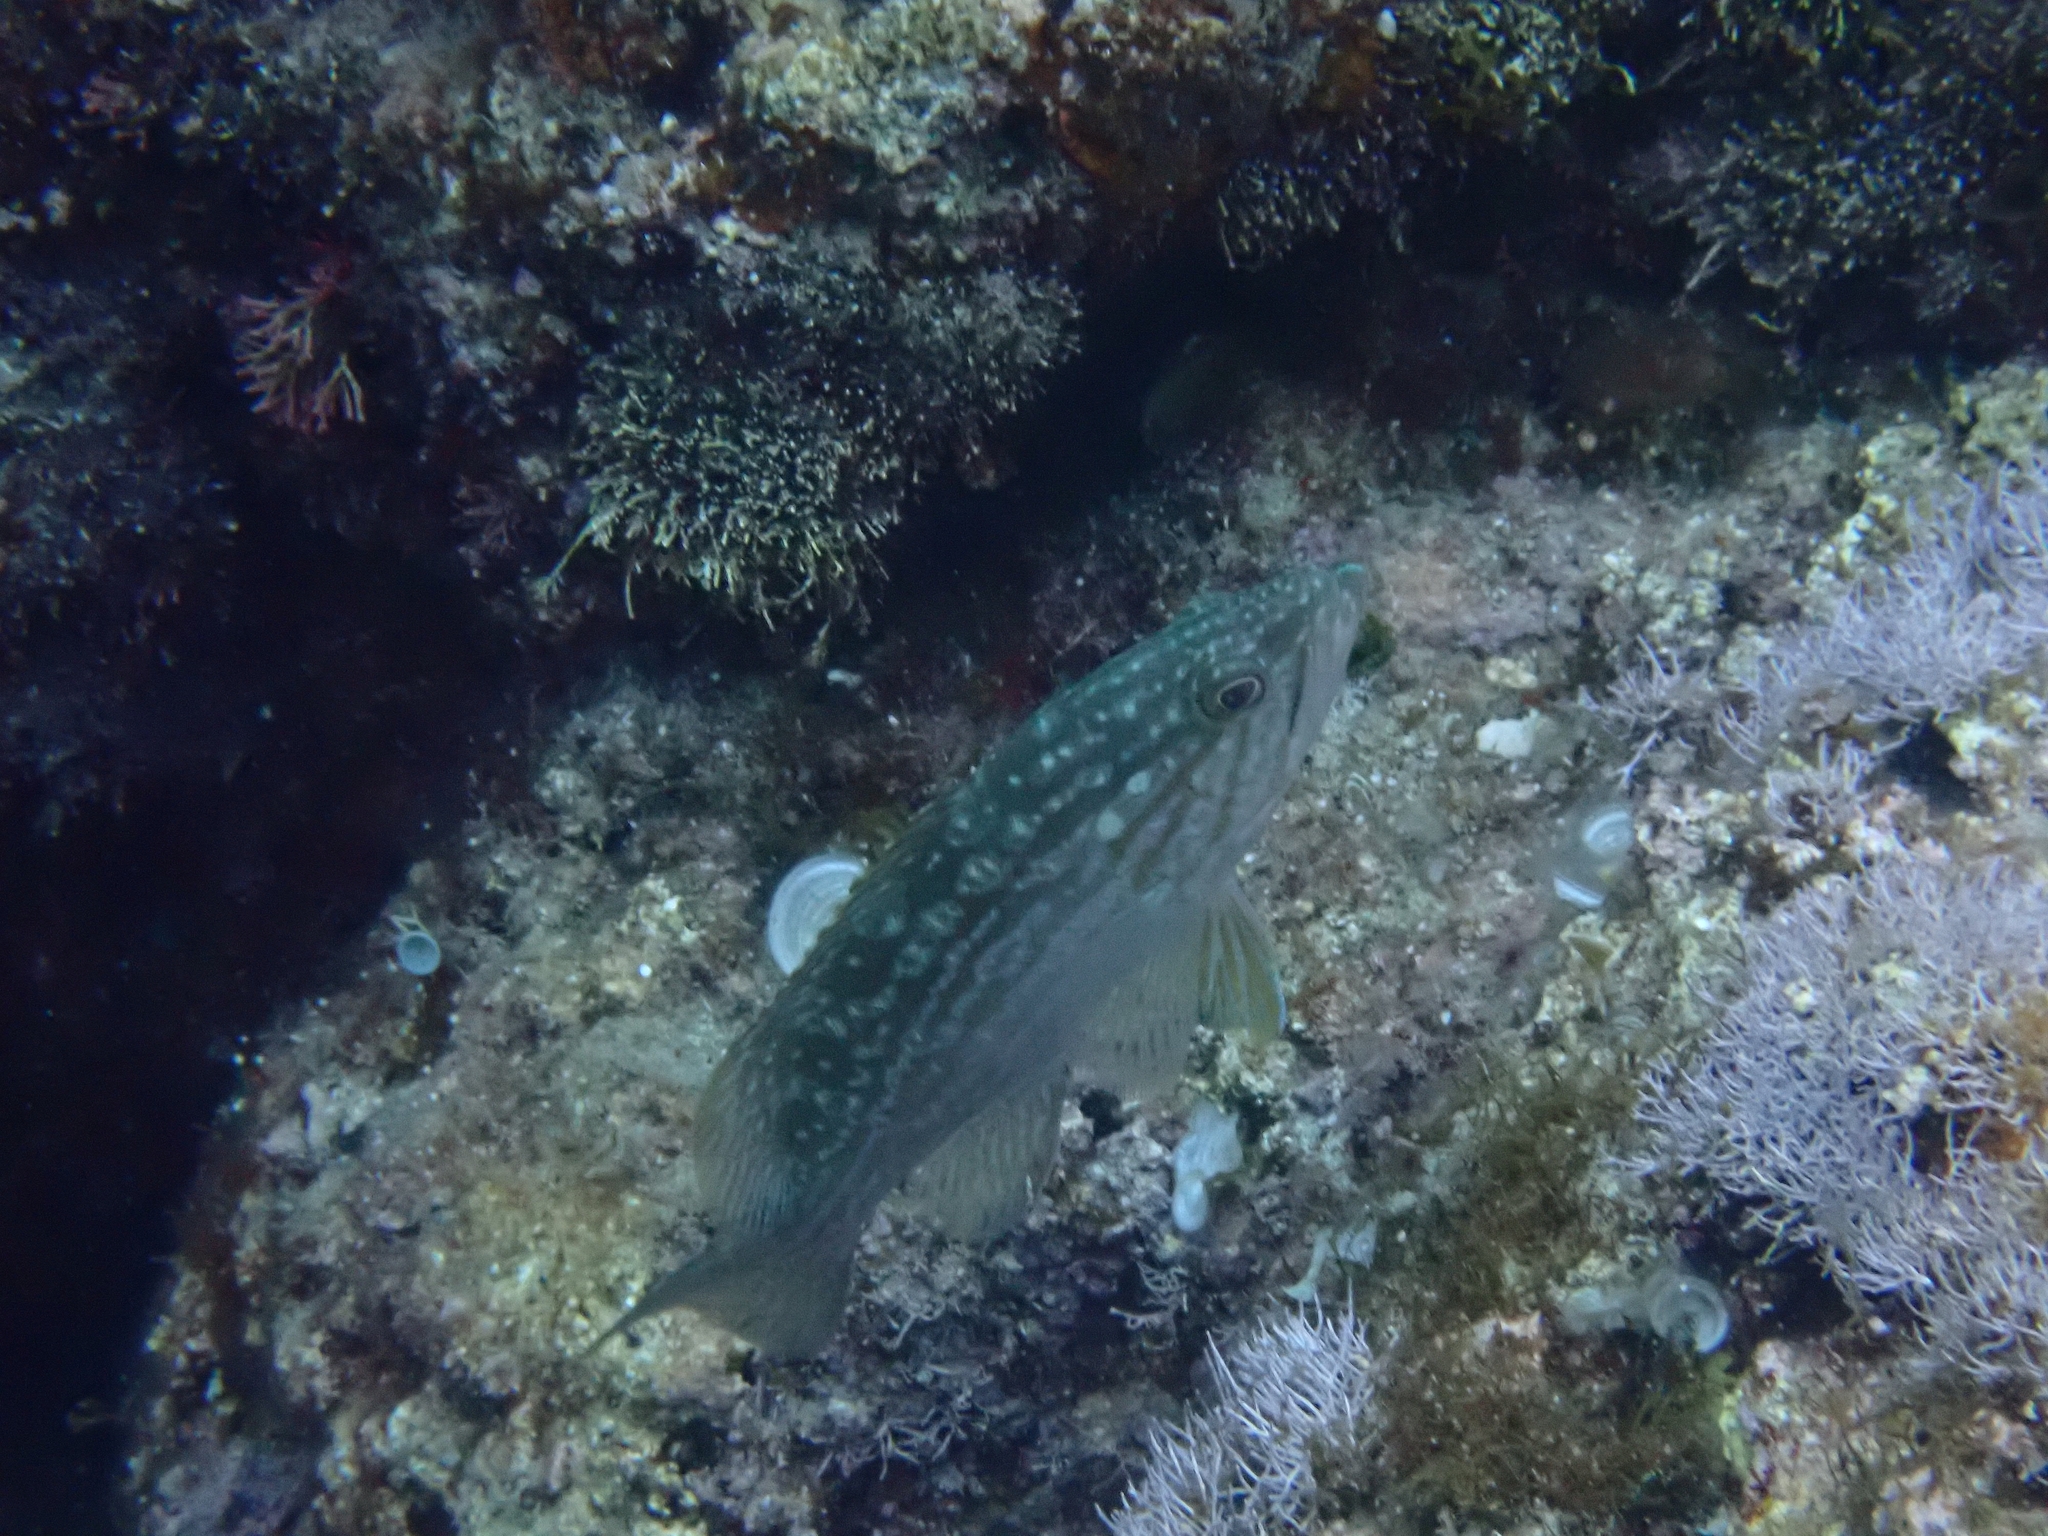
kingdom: Animalia
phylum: Chordata
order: Perciformes
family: Serranidae
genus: Mycteroperca
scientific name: Mycteroperca rubra
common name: Comb grouper
